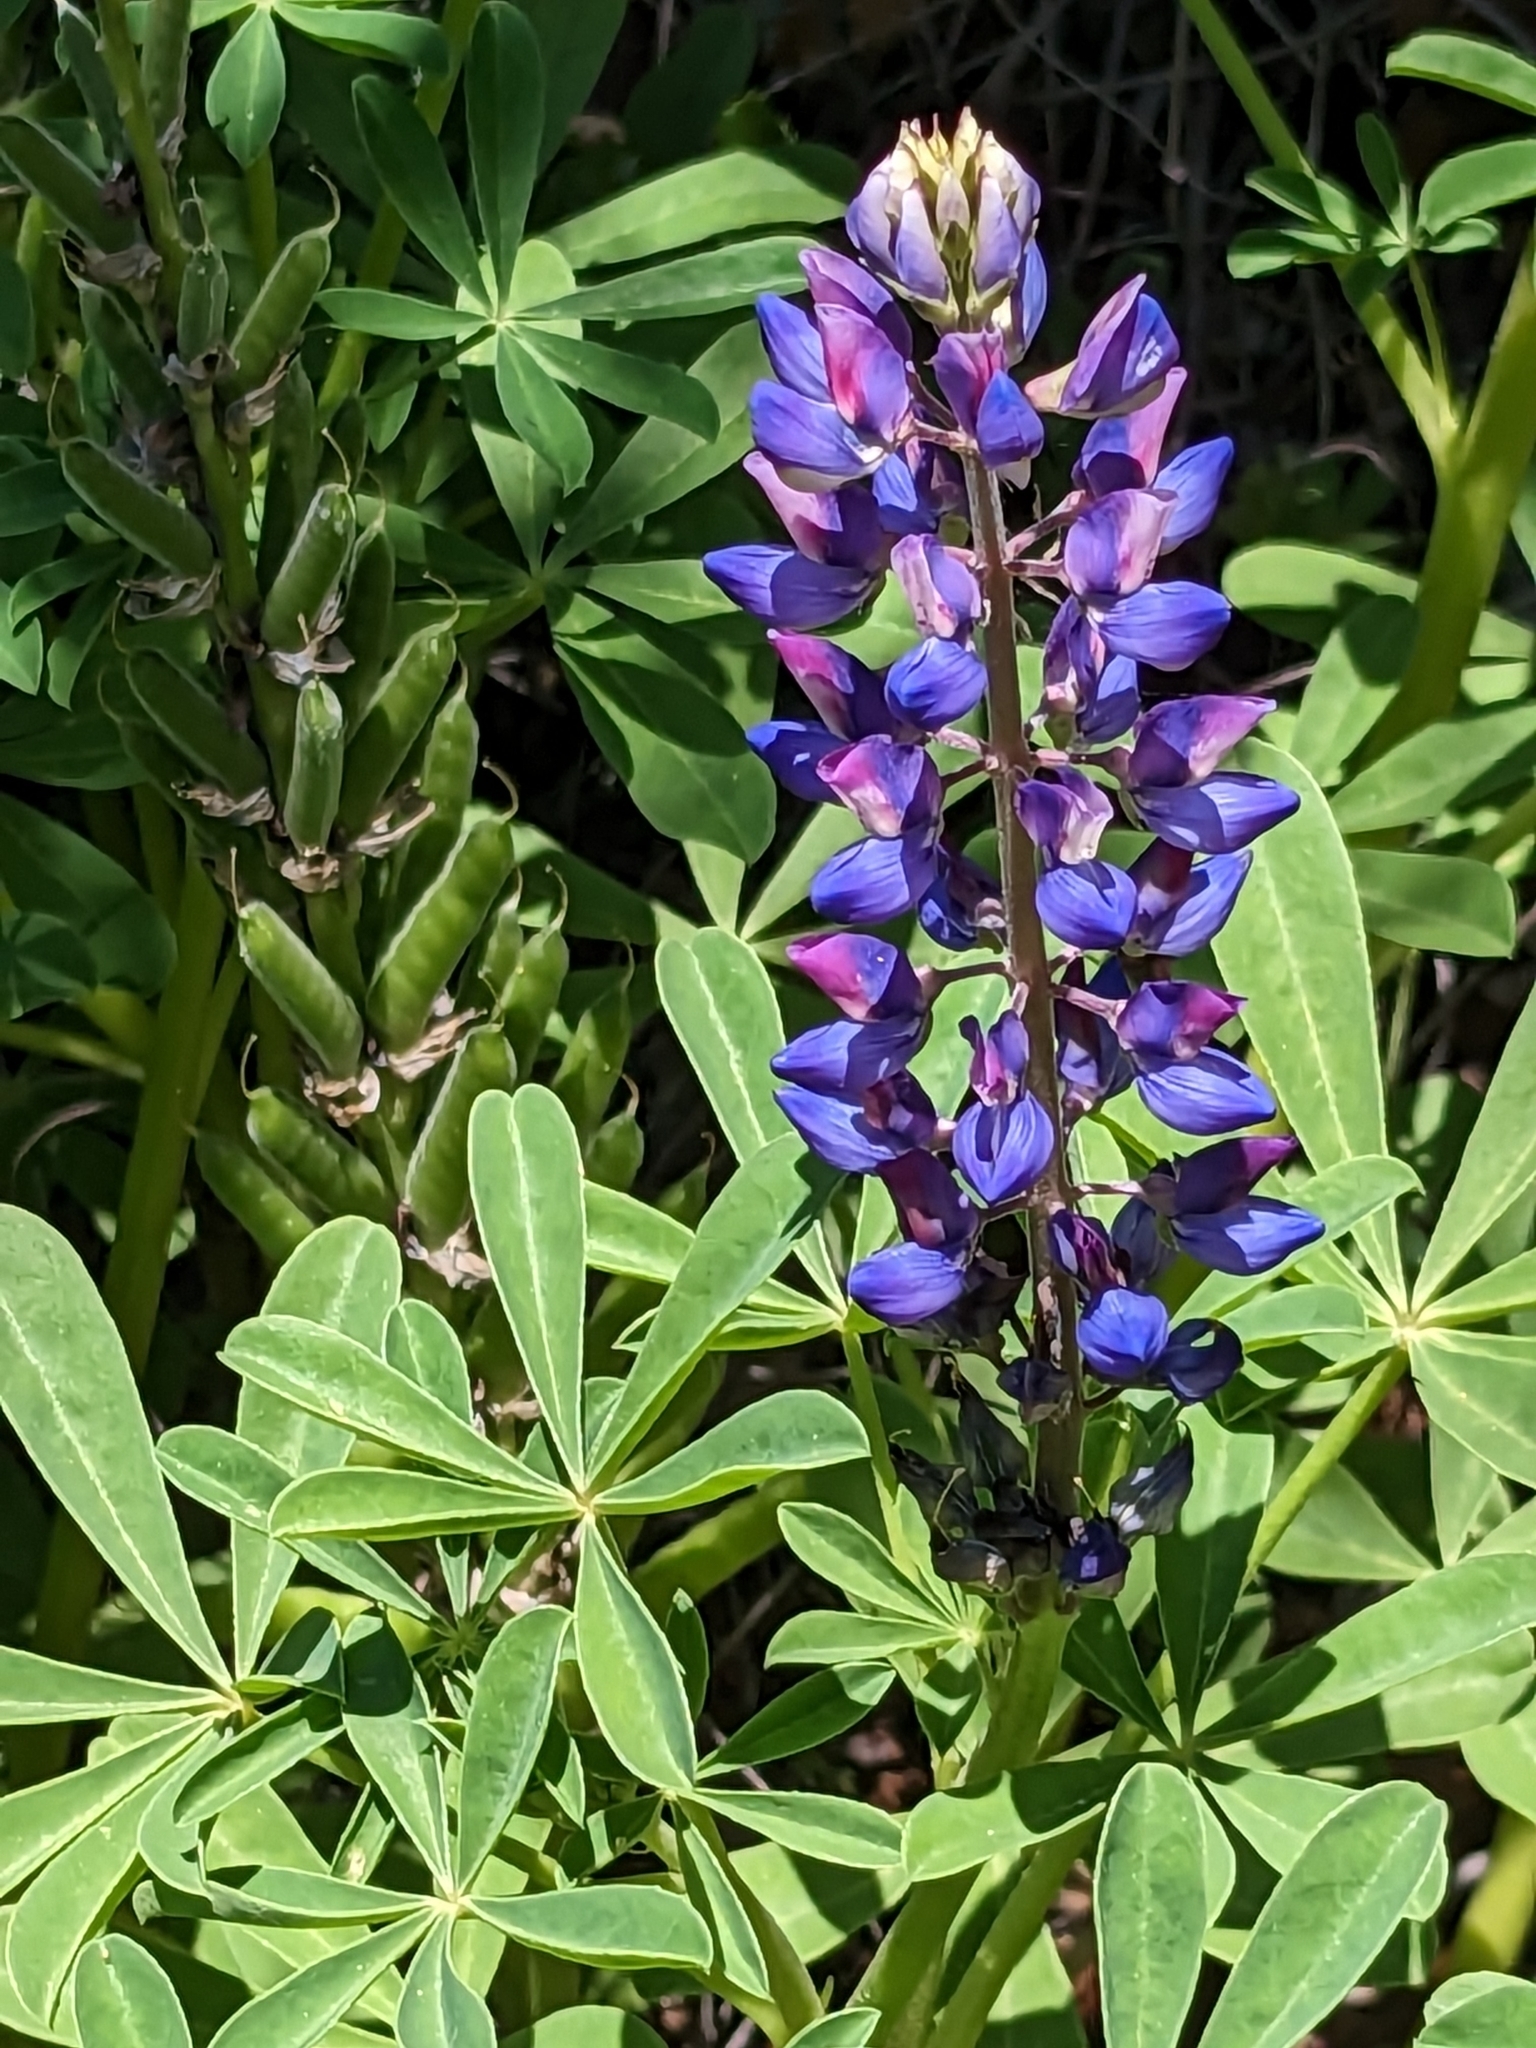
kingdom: Plantae
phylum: Tracheophyta
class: Magnoliopsida
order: Fabales
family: Fabaceae
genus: Lupinus
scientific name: Lupinus succulentus
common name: Arroyo lupine
